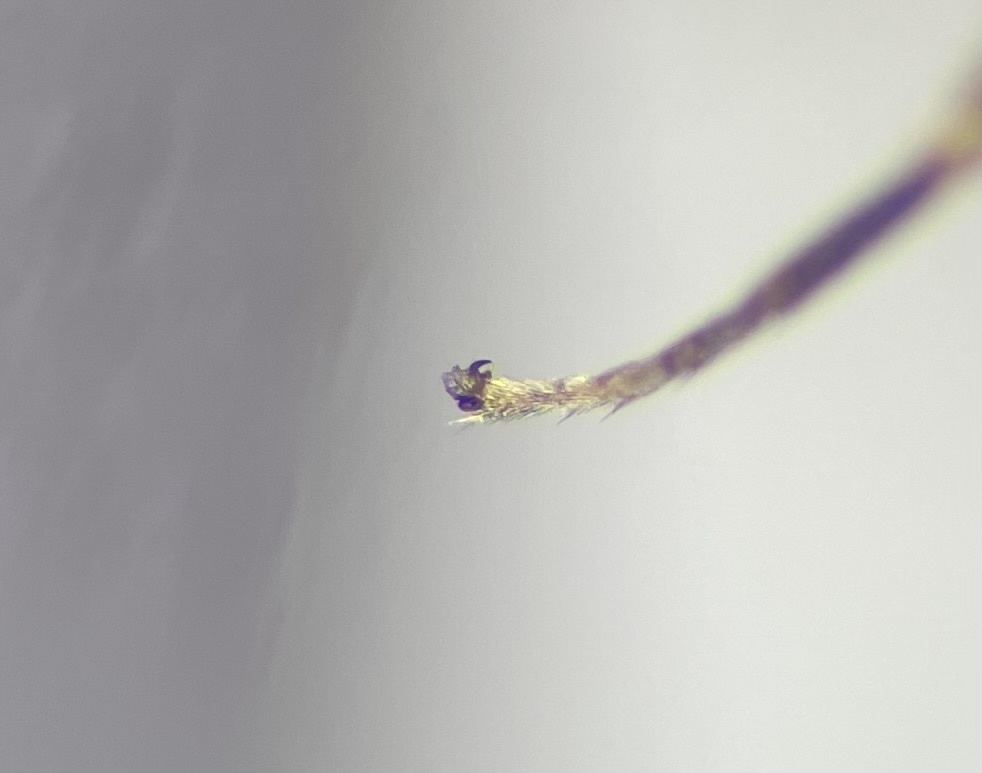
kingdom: Animalia
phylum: Arthropoda
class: Insecta
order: Hymenoptera
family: Cynipidae
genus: Synergus
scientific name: Synergus oneratus
